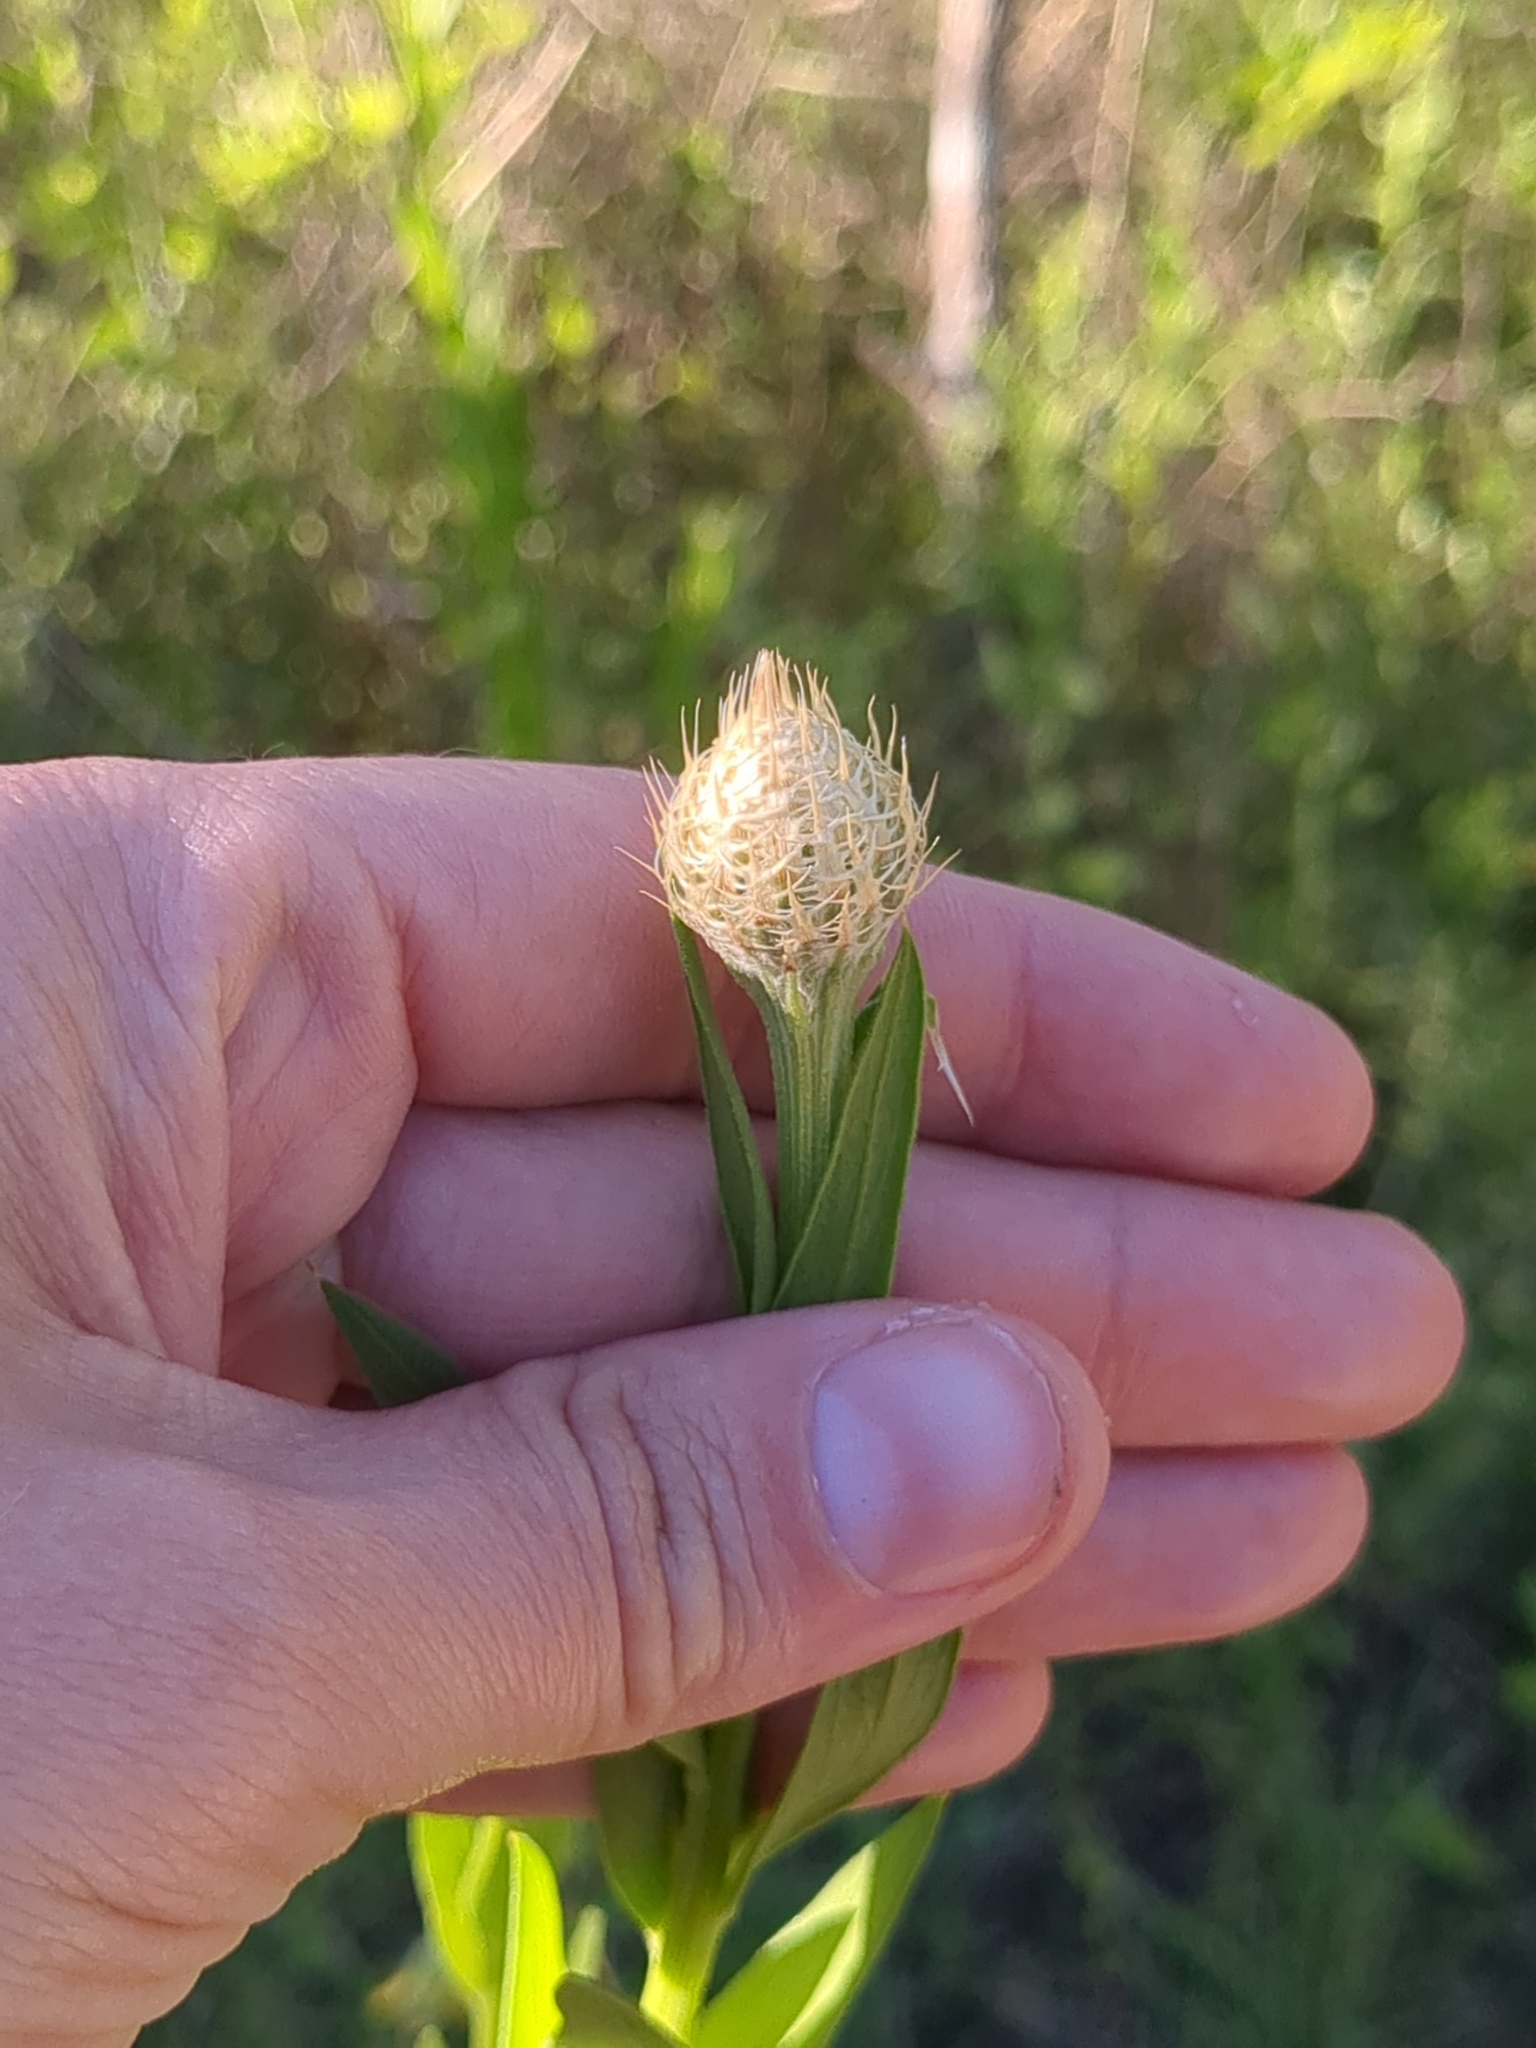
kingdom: Plantae
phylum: Tracheophyta
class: Magnoliopsida
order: Asterales
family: Asteraceae
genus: Plectocephalus
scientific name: Plectocephalus americanus
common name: American basket-flower
